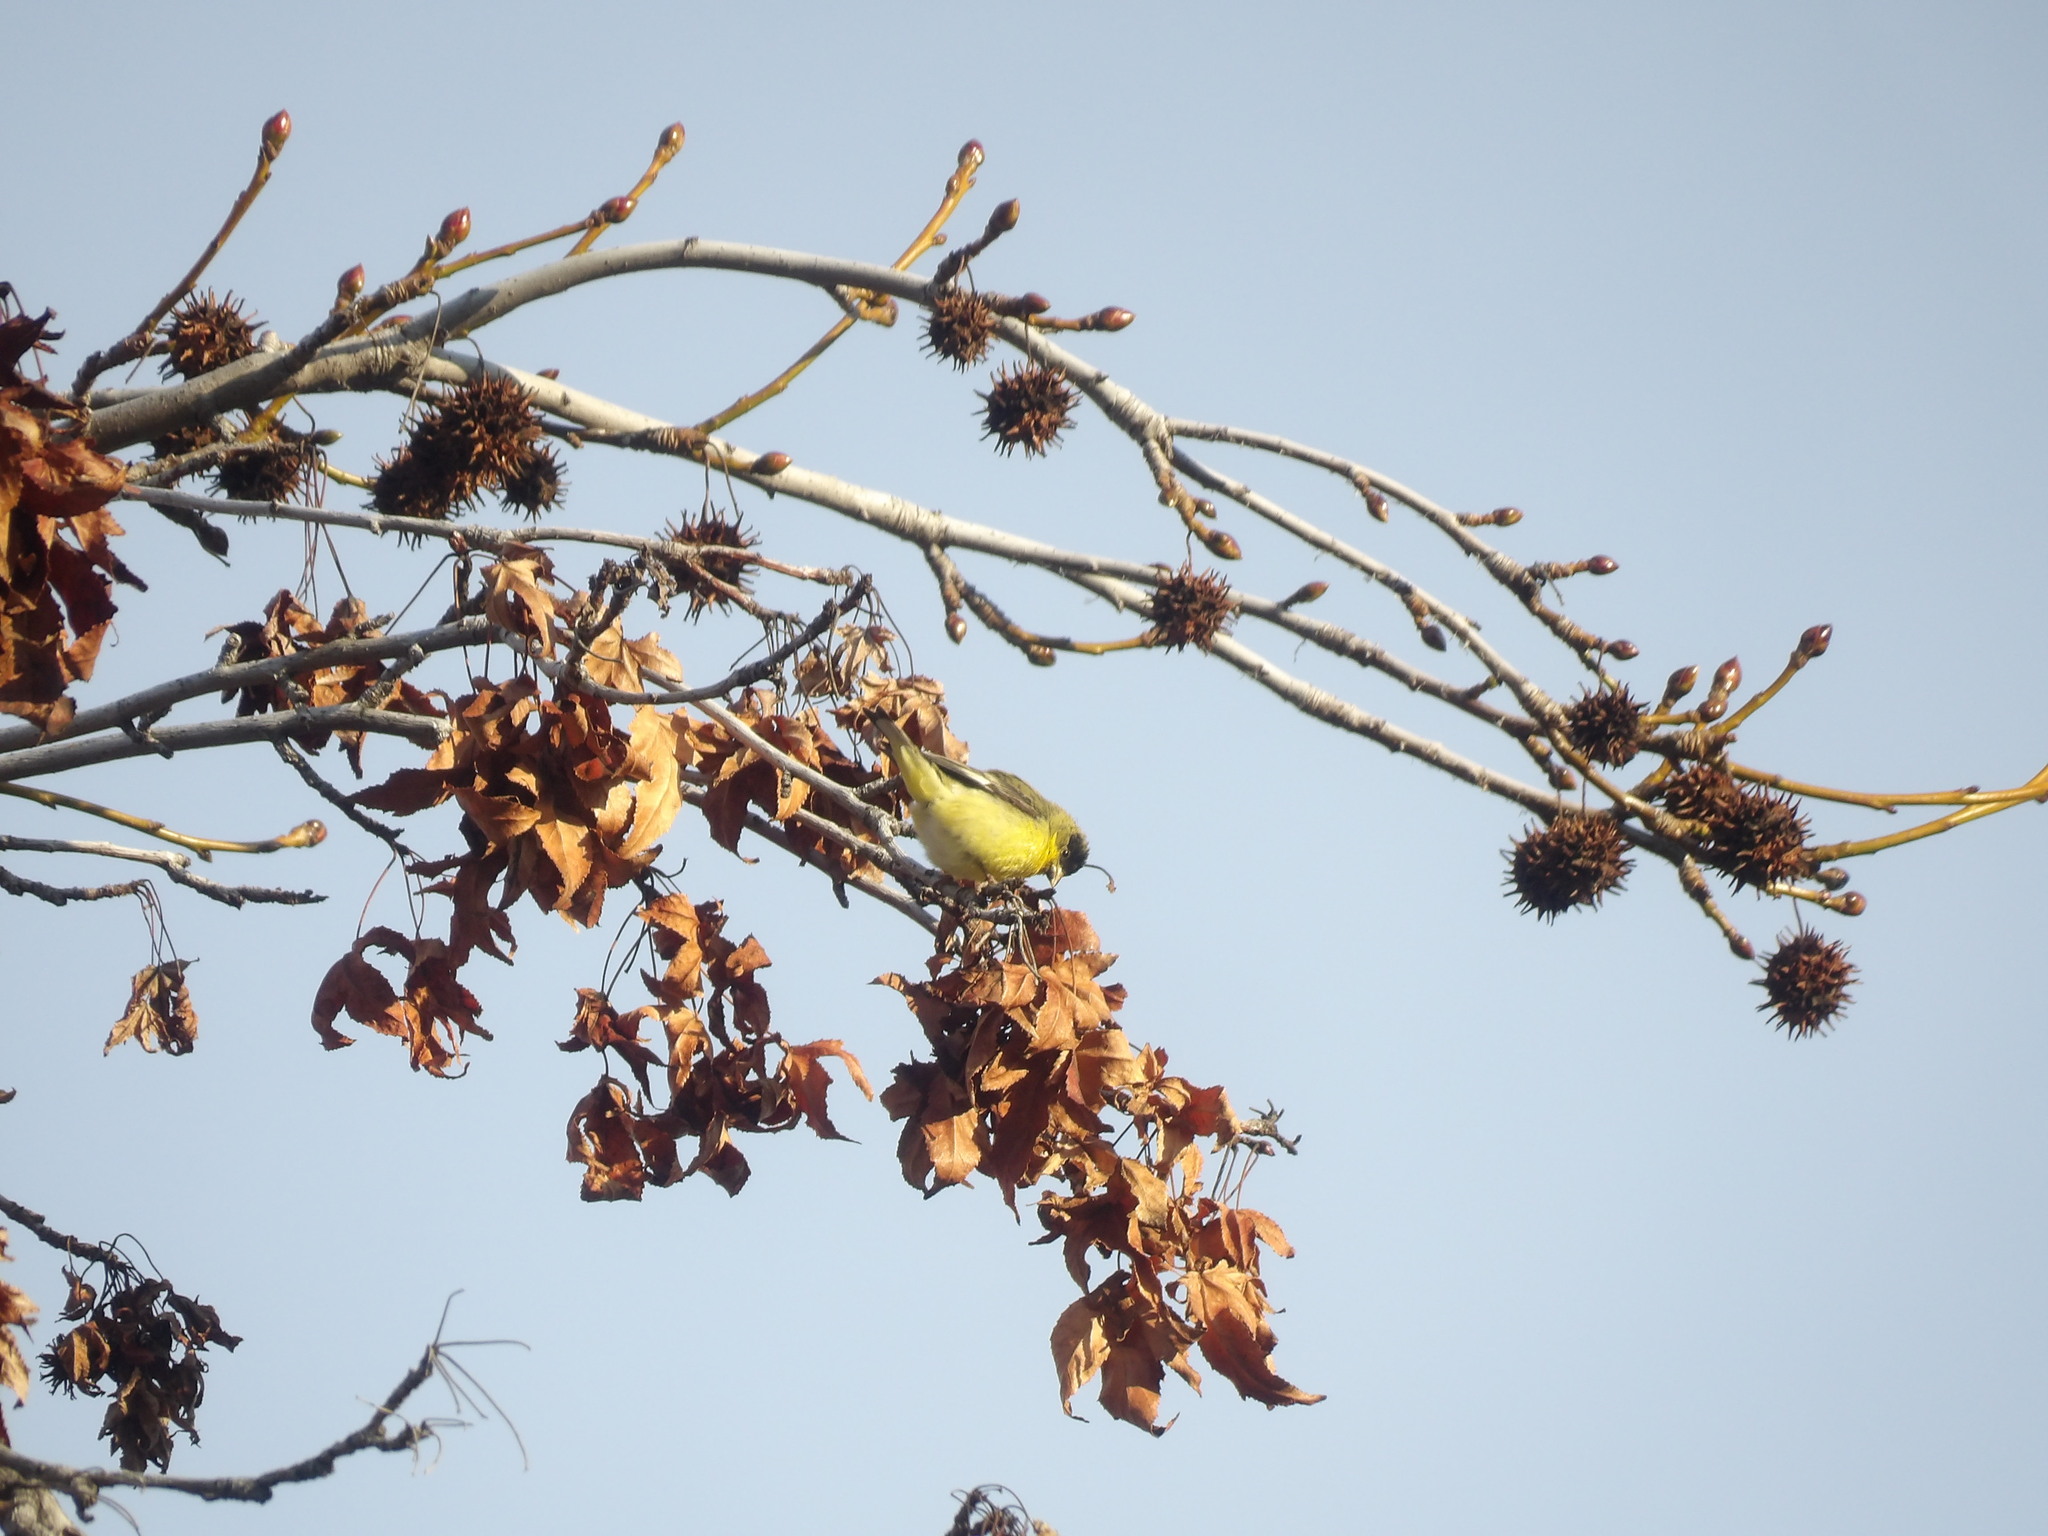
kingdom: Animalia
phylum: Chordata
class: Aves
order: Passeriformes
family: Fringillidae
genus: Spinus
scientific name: Spinus psaltria
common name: Lesser goldfinch
